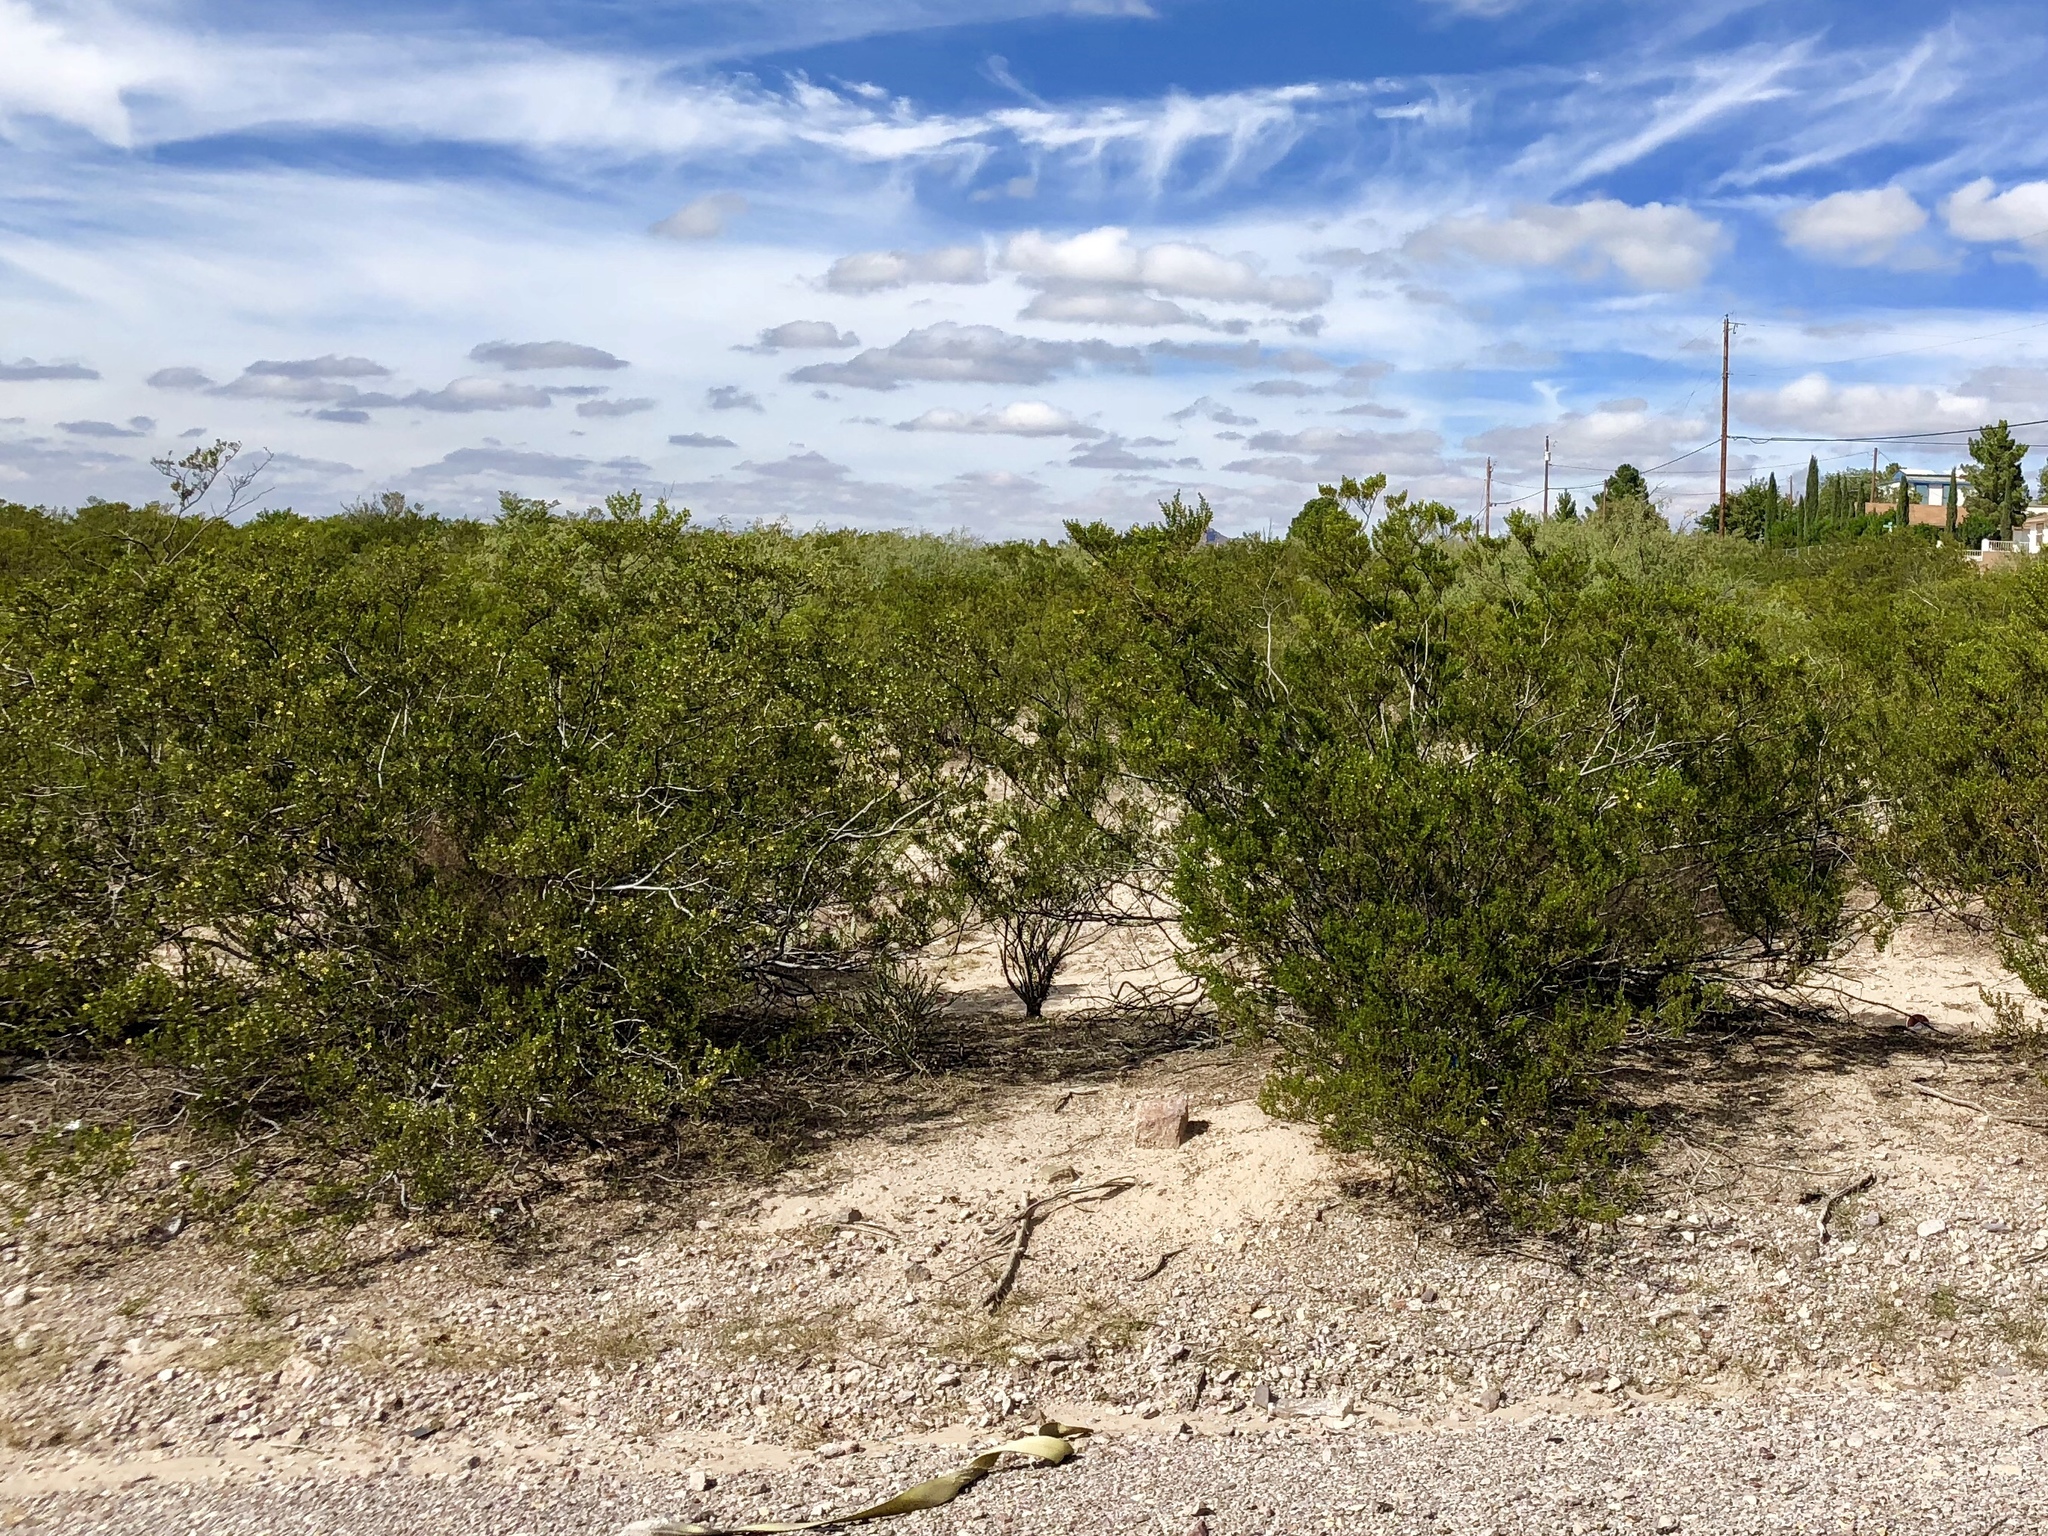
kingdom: Plantae
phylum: Tracheophyta
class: Magnoliopsida
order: Zygophyllales
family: Zygophyllaceae
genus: Larrea
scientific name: Larrea tridentata
